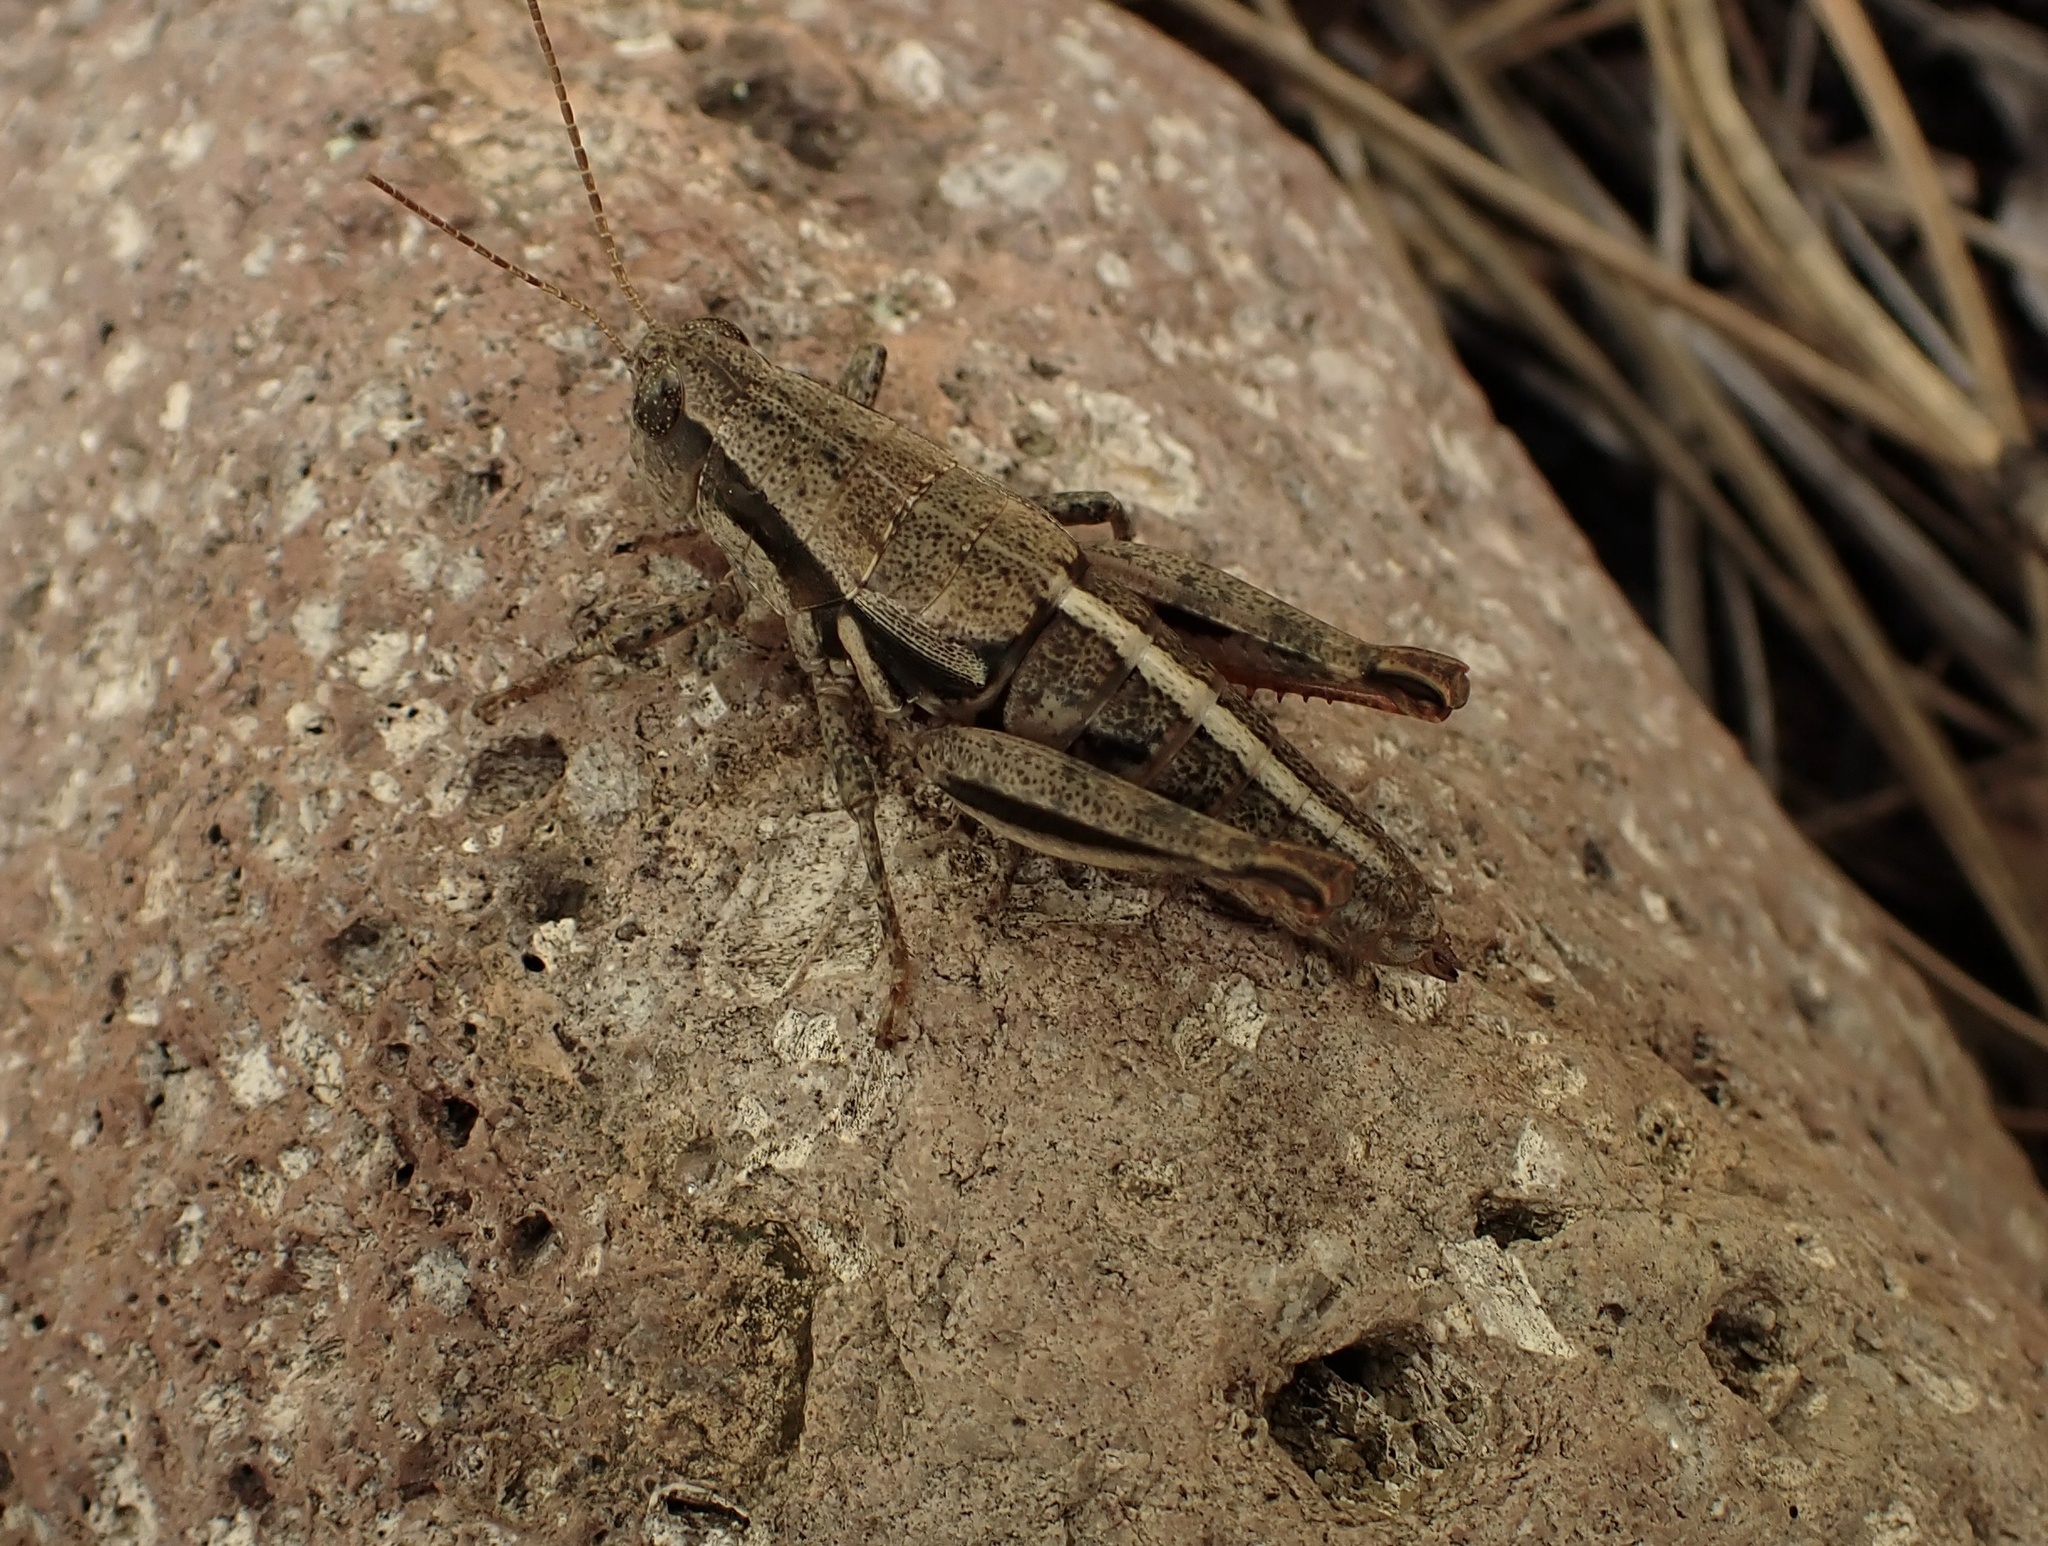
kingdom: Animalia
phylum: Arthropoda
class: Insecta
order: Orthoptera
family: Acrididae
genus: Conalcaea
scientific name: Conalcaea huachucana
